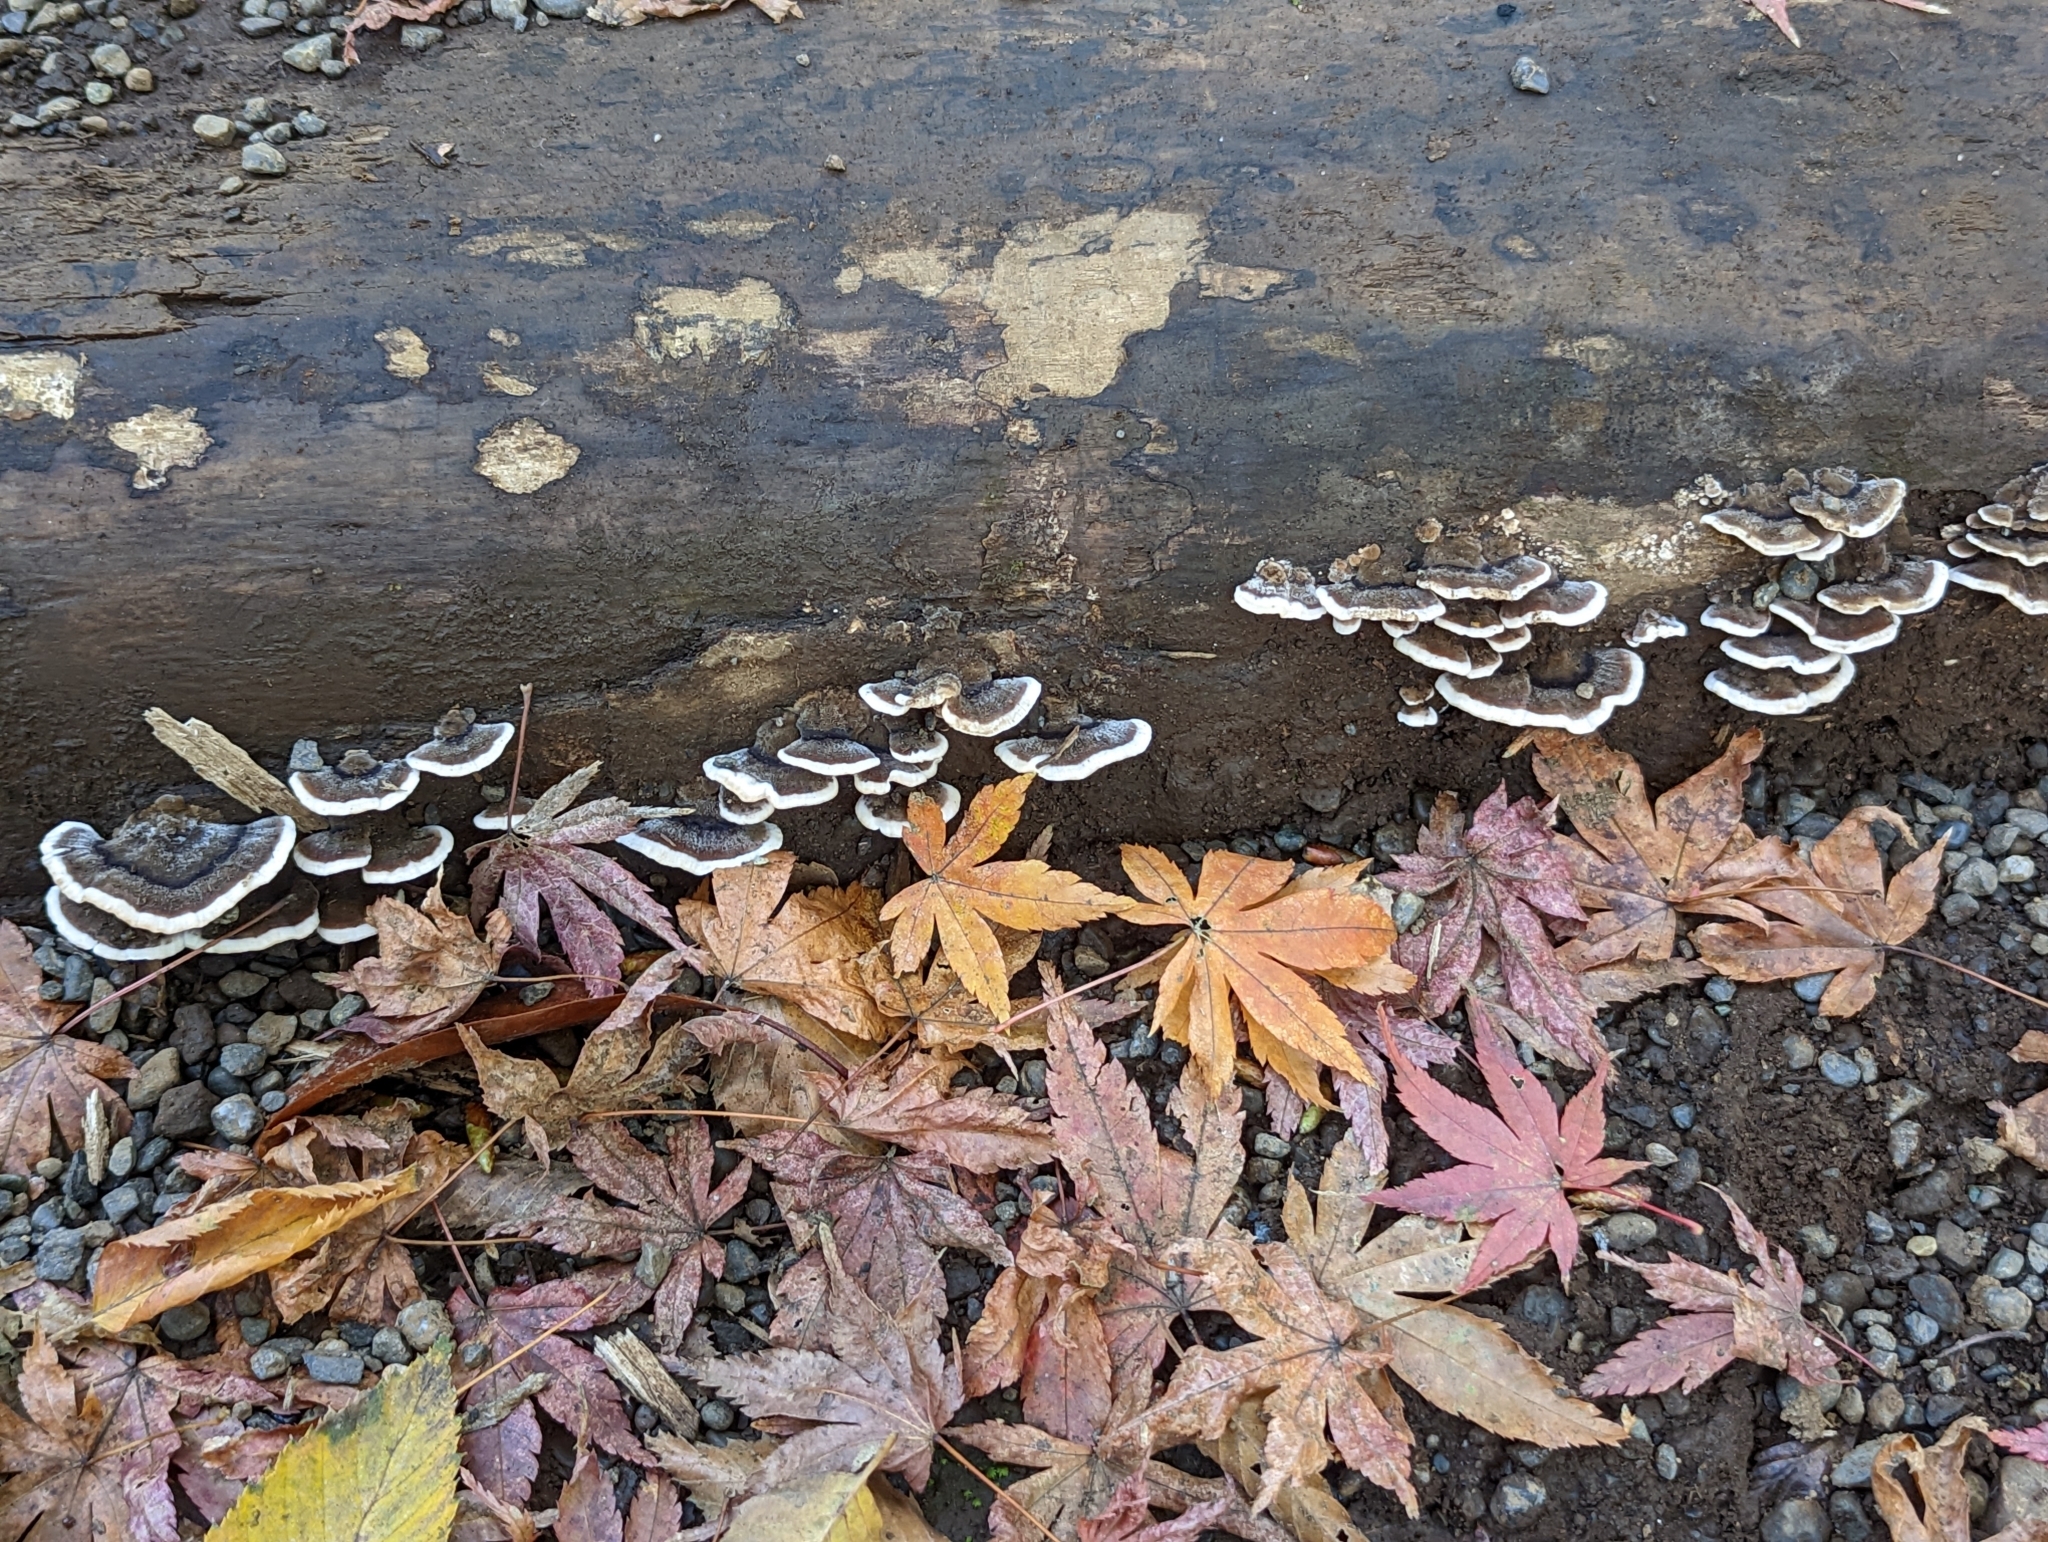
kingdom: Fungi
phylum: Basidiomycota
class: Agaricomycetes
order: Polyporales
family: Polyporaceae
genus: Trametes
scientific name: Trametes versicolor
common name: Turkeytail
